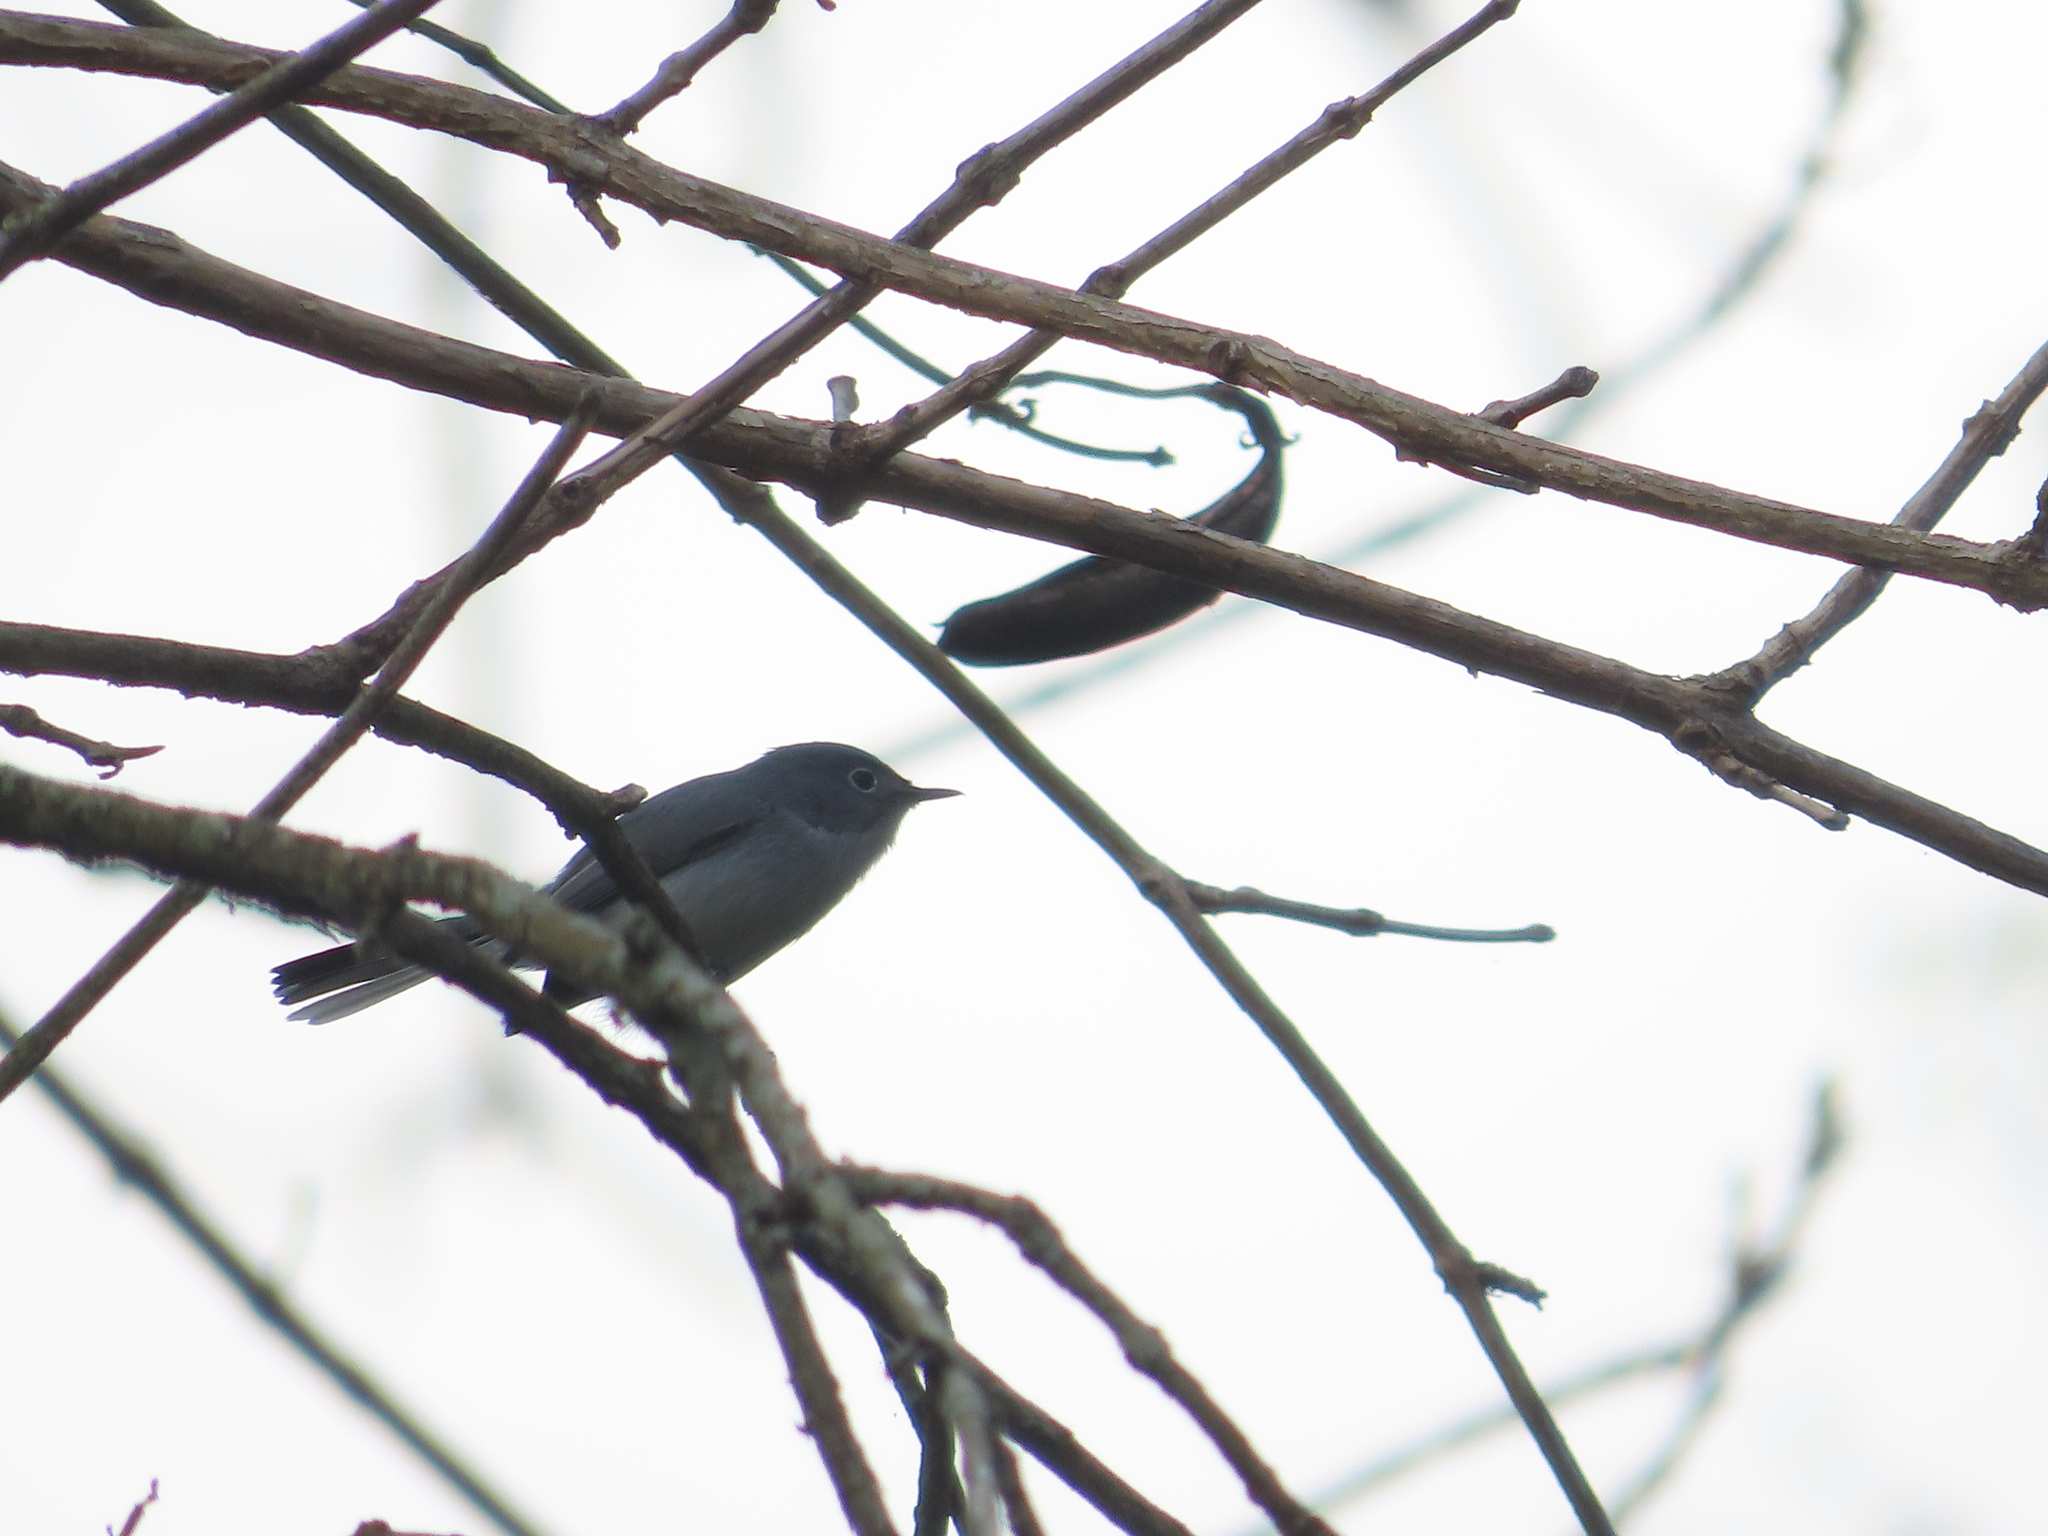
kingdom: Animalia
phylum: Chordata
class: Aves
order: Passeriformes
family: Polioptilidae
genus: Polioptila
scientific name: Polioptila caerulea
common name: Blue-gray gnatcatcher
